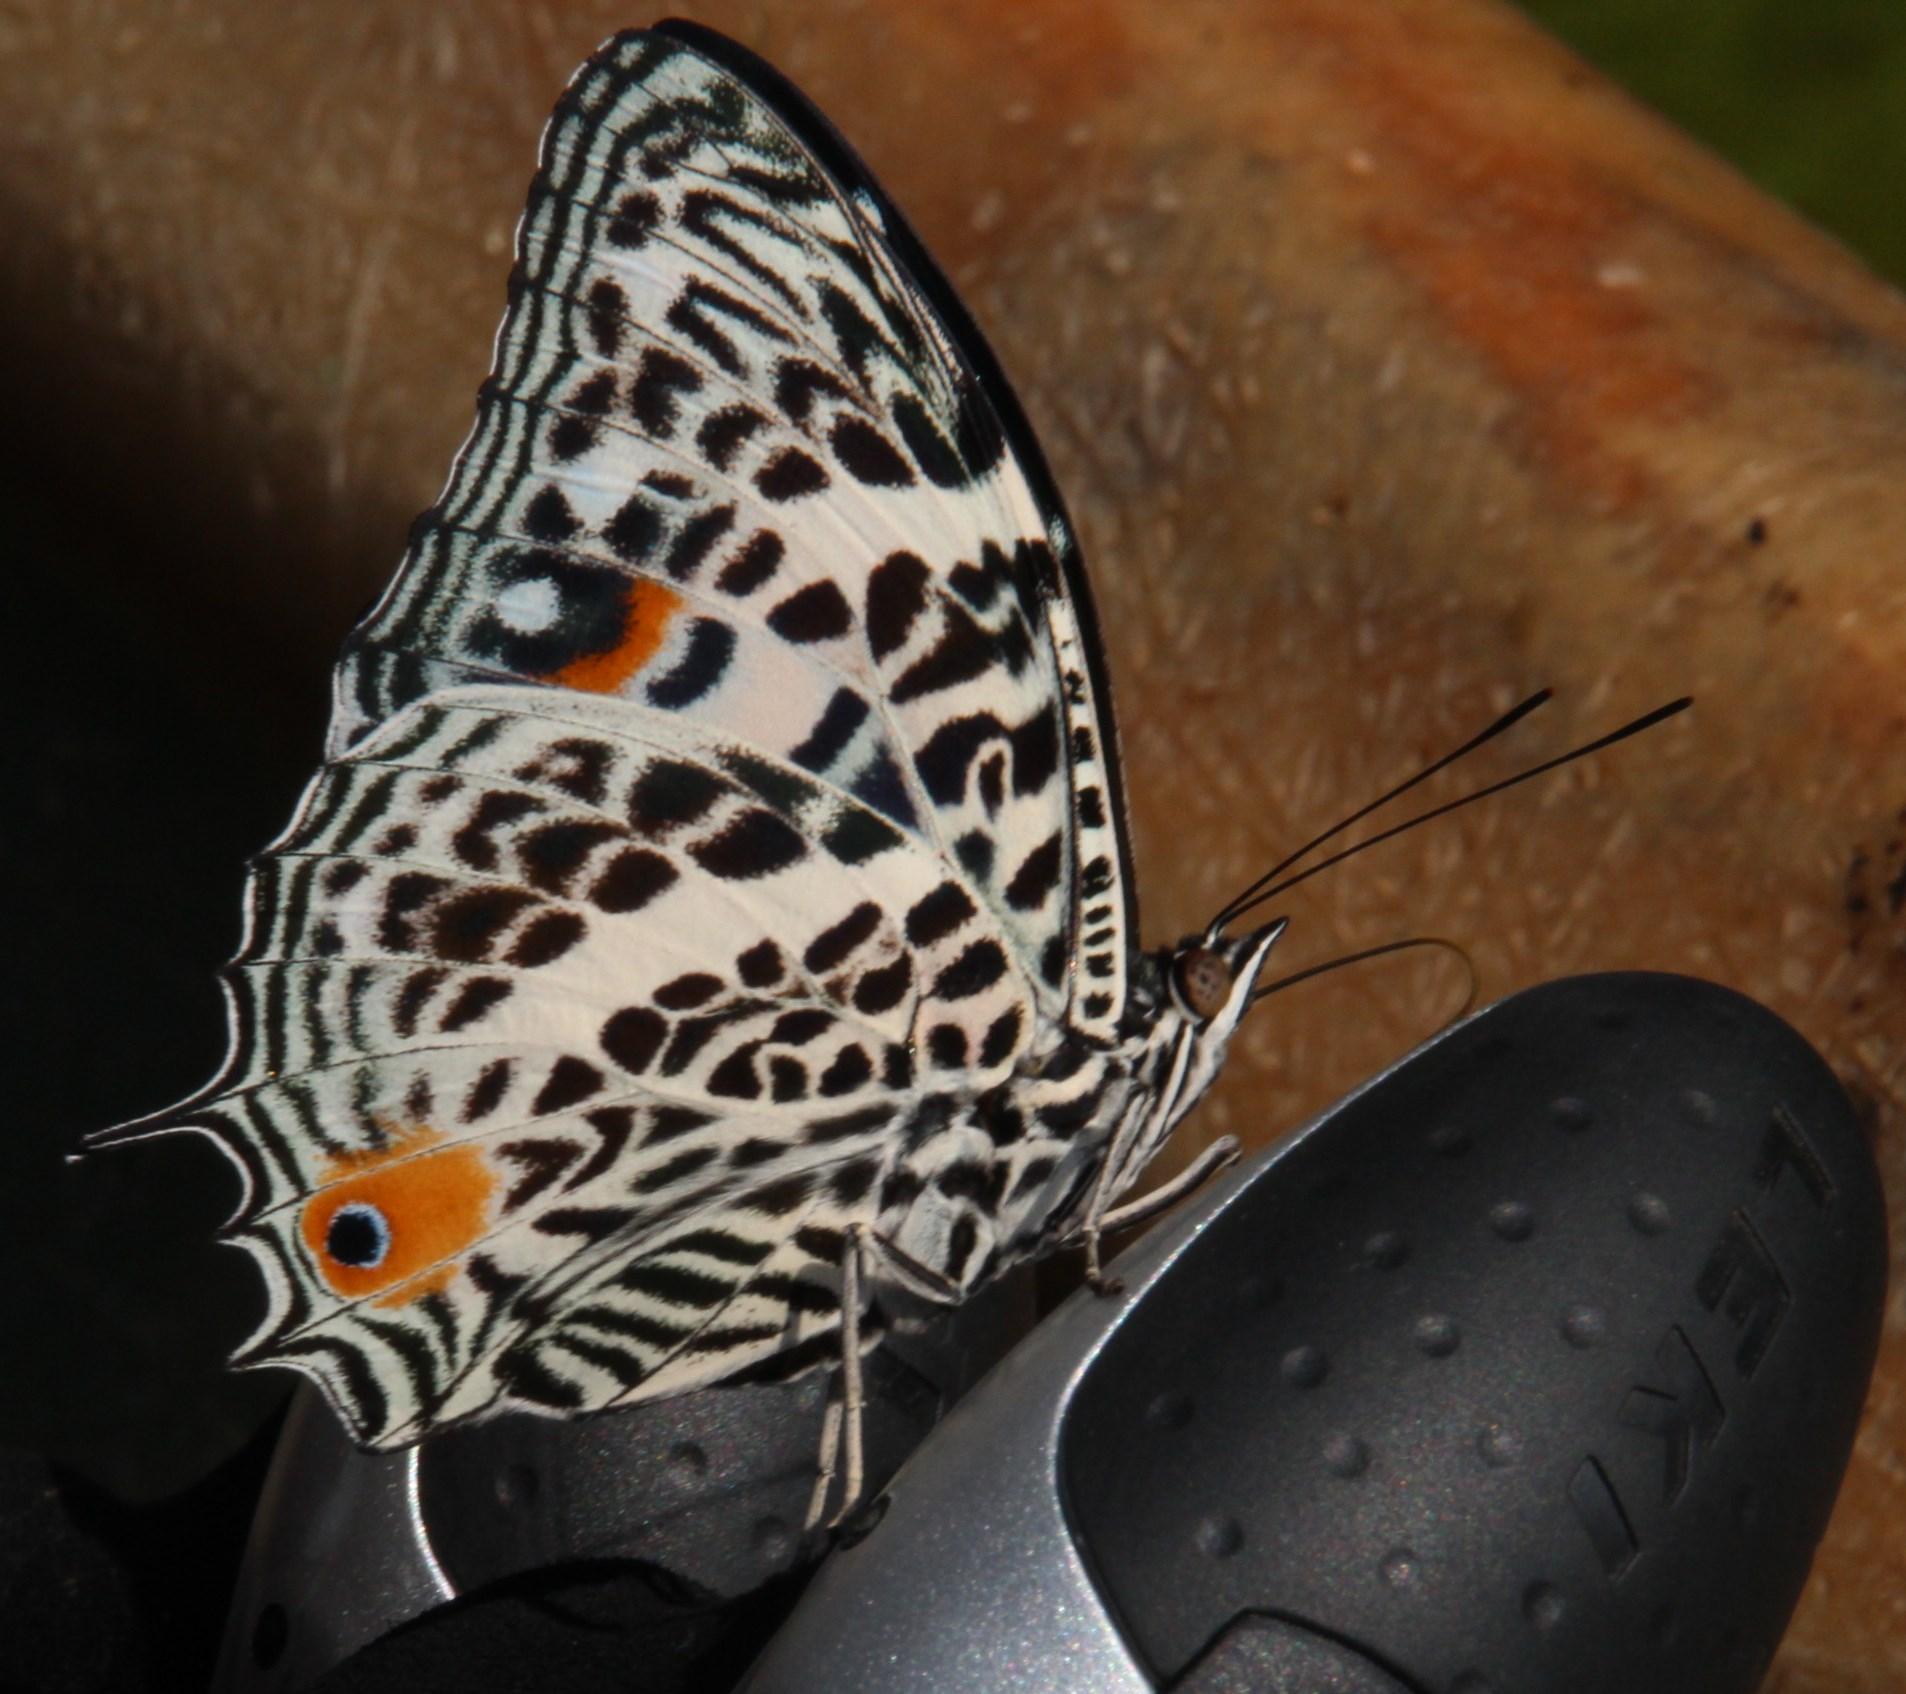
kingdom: Animalia
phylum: Arthropoda
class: Insecta
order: Lepidoptera
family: Nymphalidae
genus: Baeotus
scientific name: Baeotus deucalion
